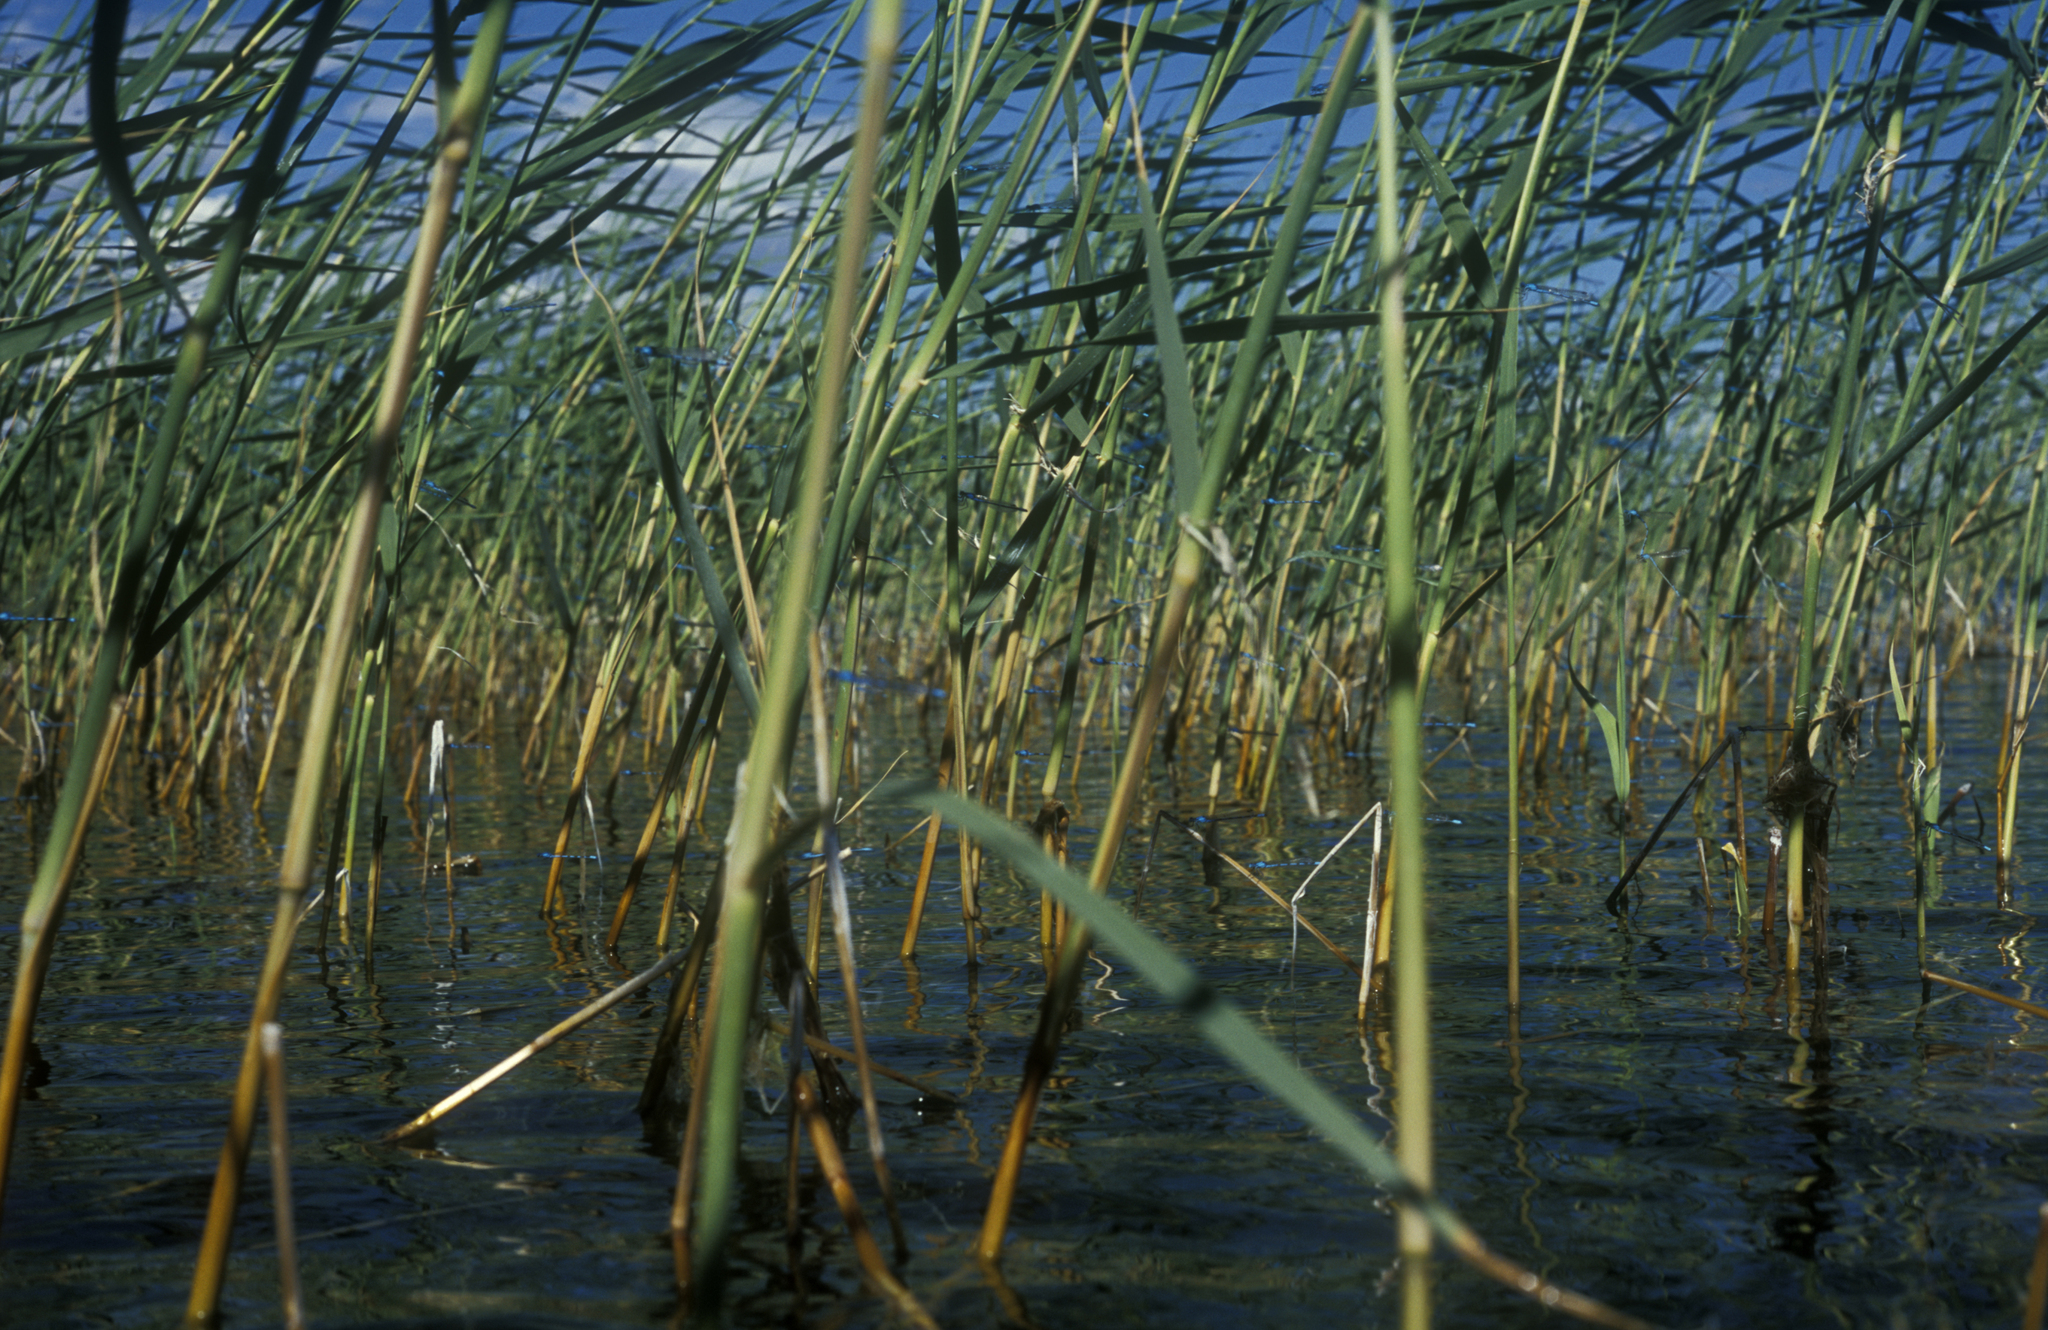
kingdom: Animalia
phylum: Arthropoda
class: Insecta
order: Odonata
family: Coenagrionidae
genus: Enallagma
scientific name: Enallagma cyathigerum
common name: Common blue damselfly
